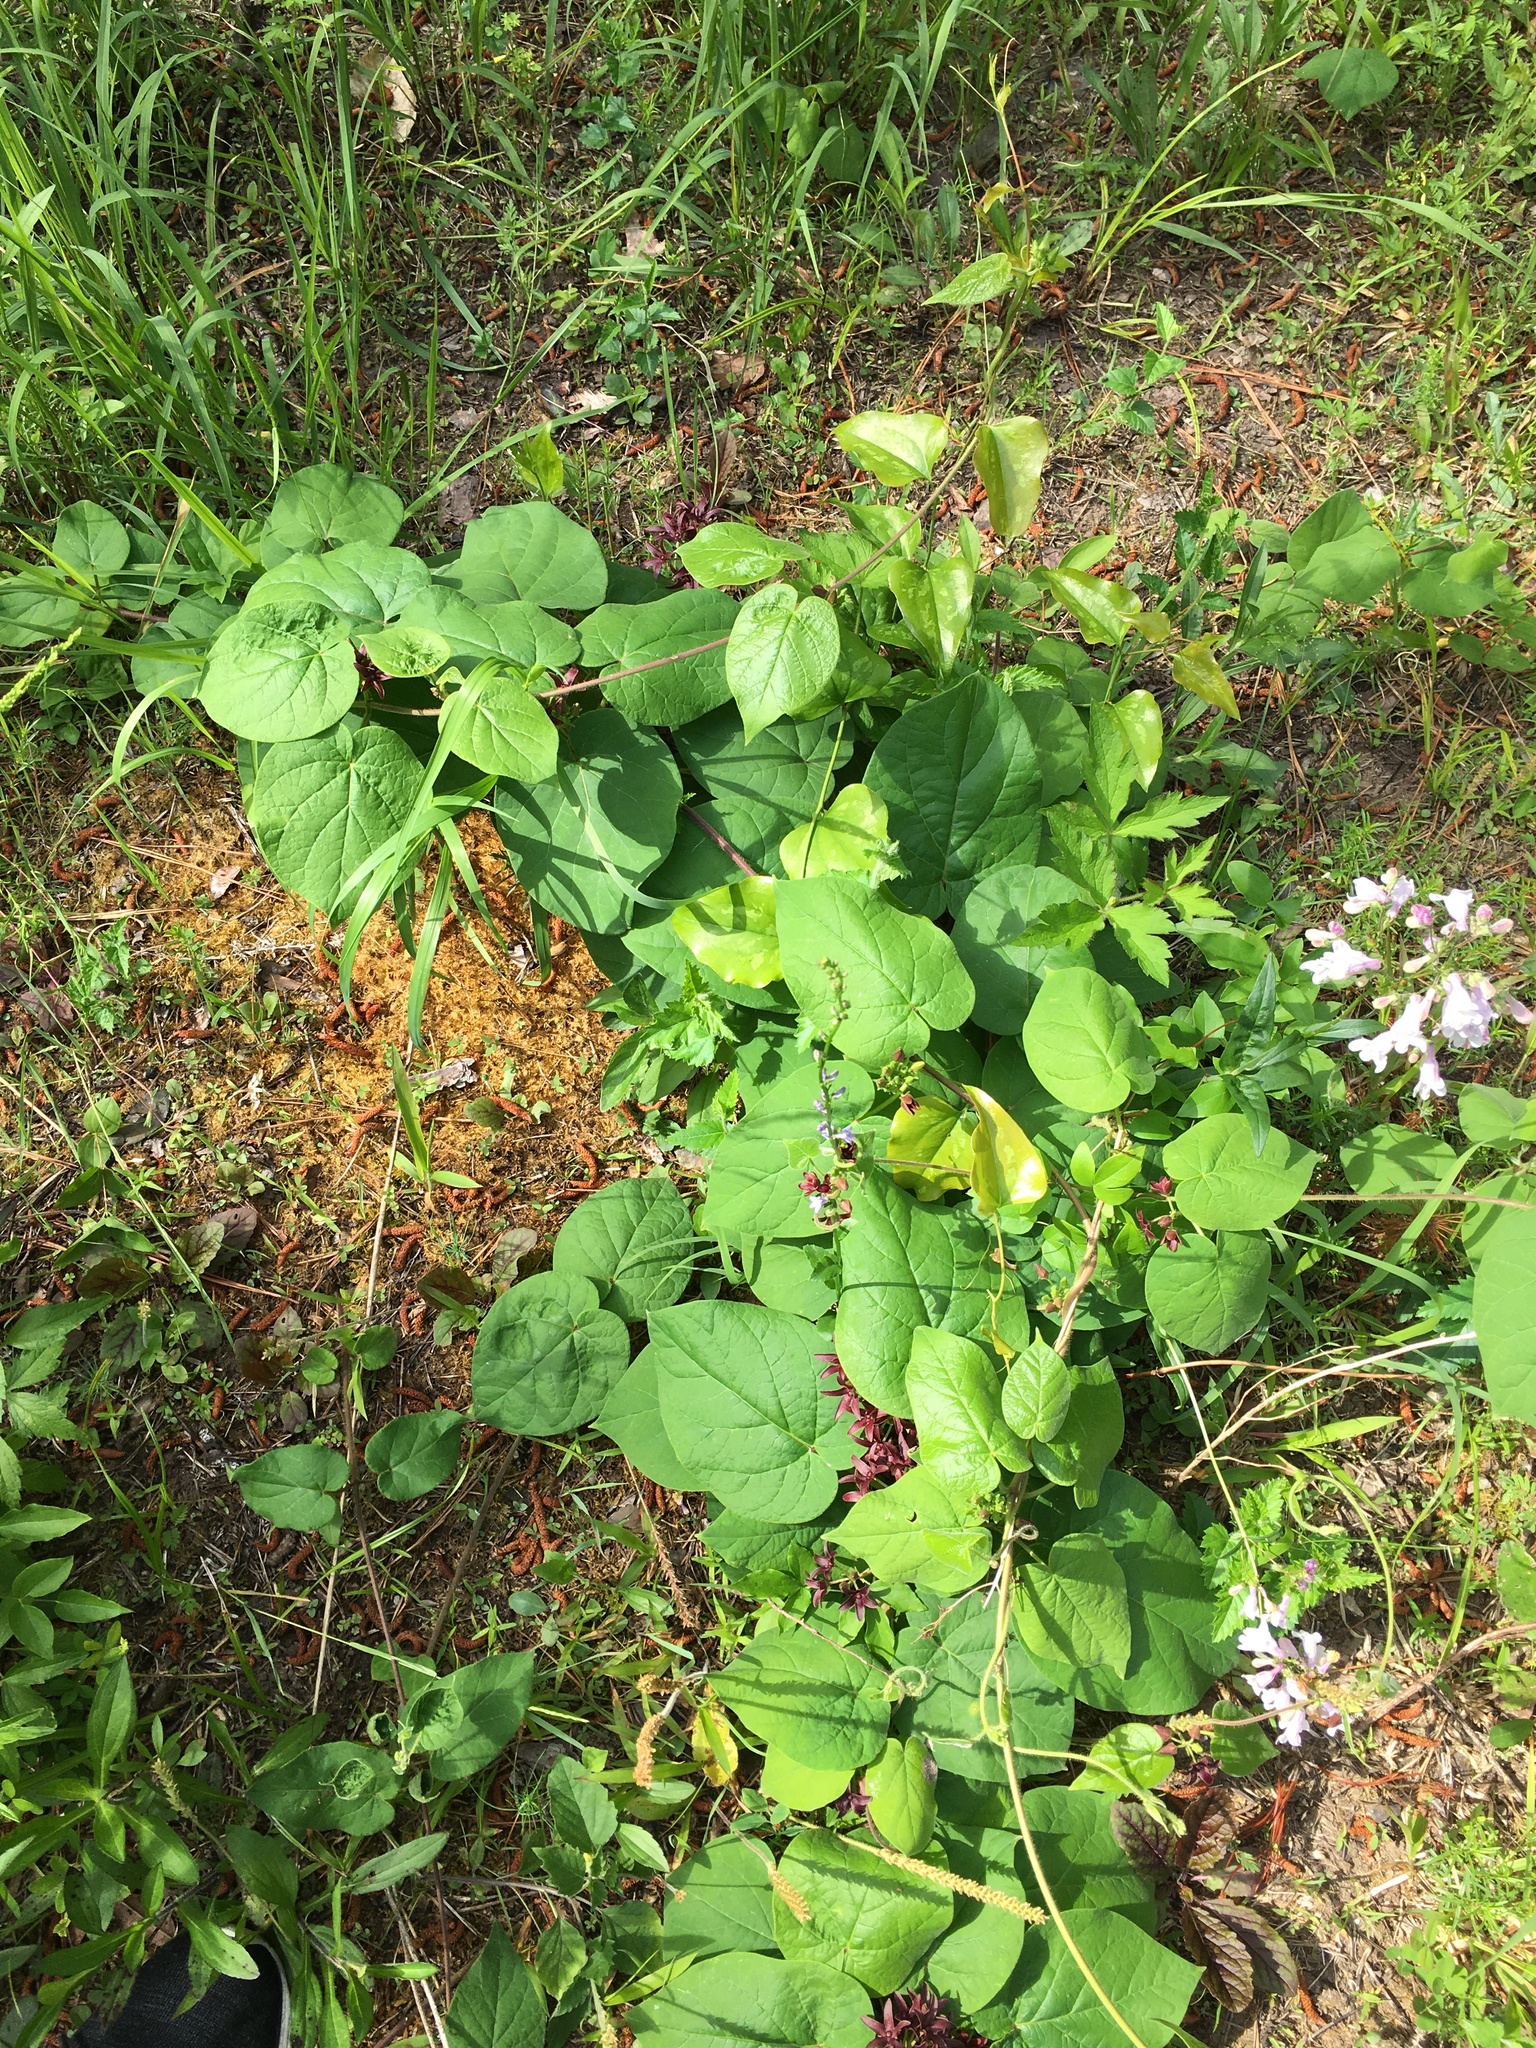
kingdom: Plantae
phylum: Tracheophyta
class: Magnoliopsida
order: Gentianales
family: Apocynaceae
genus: Matelea
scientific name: Matelea carolinensis
